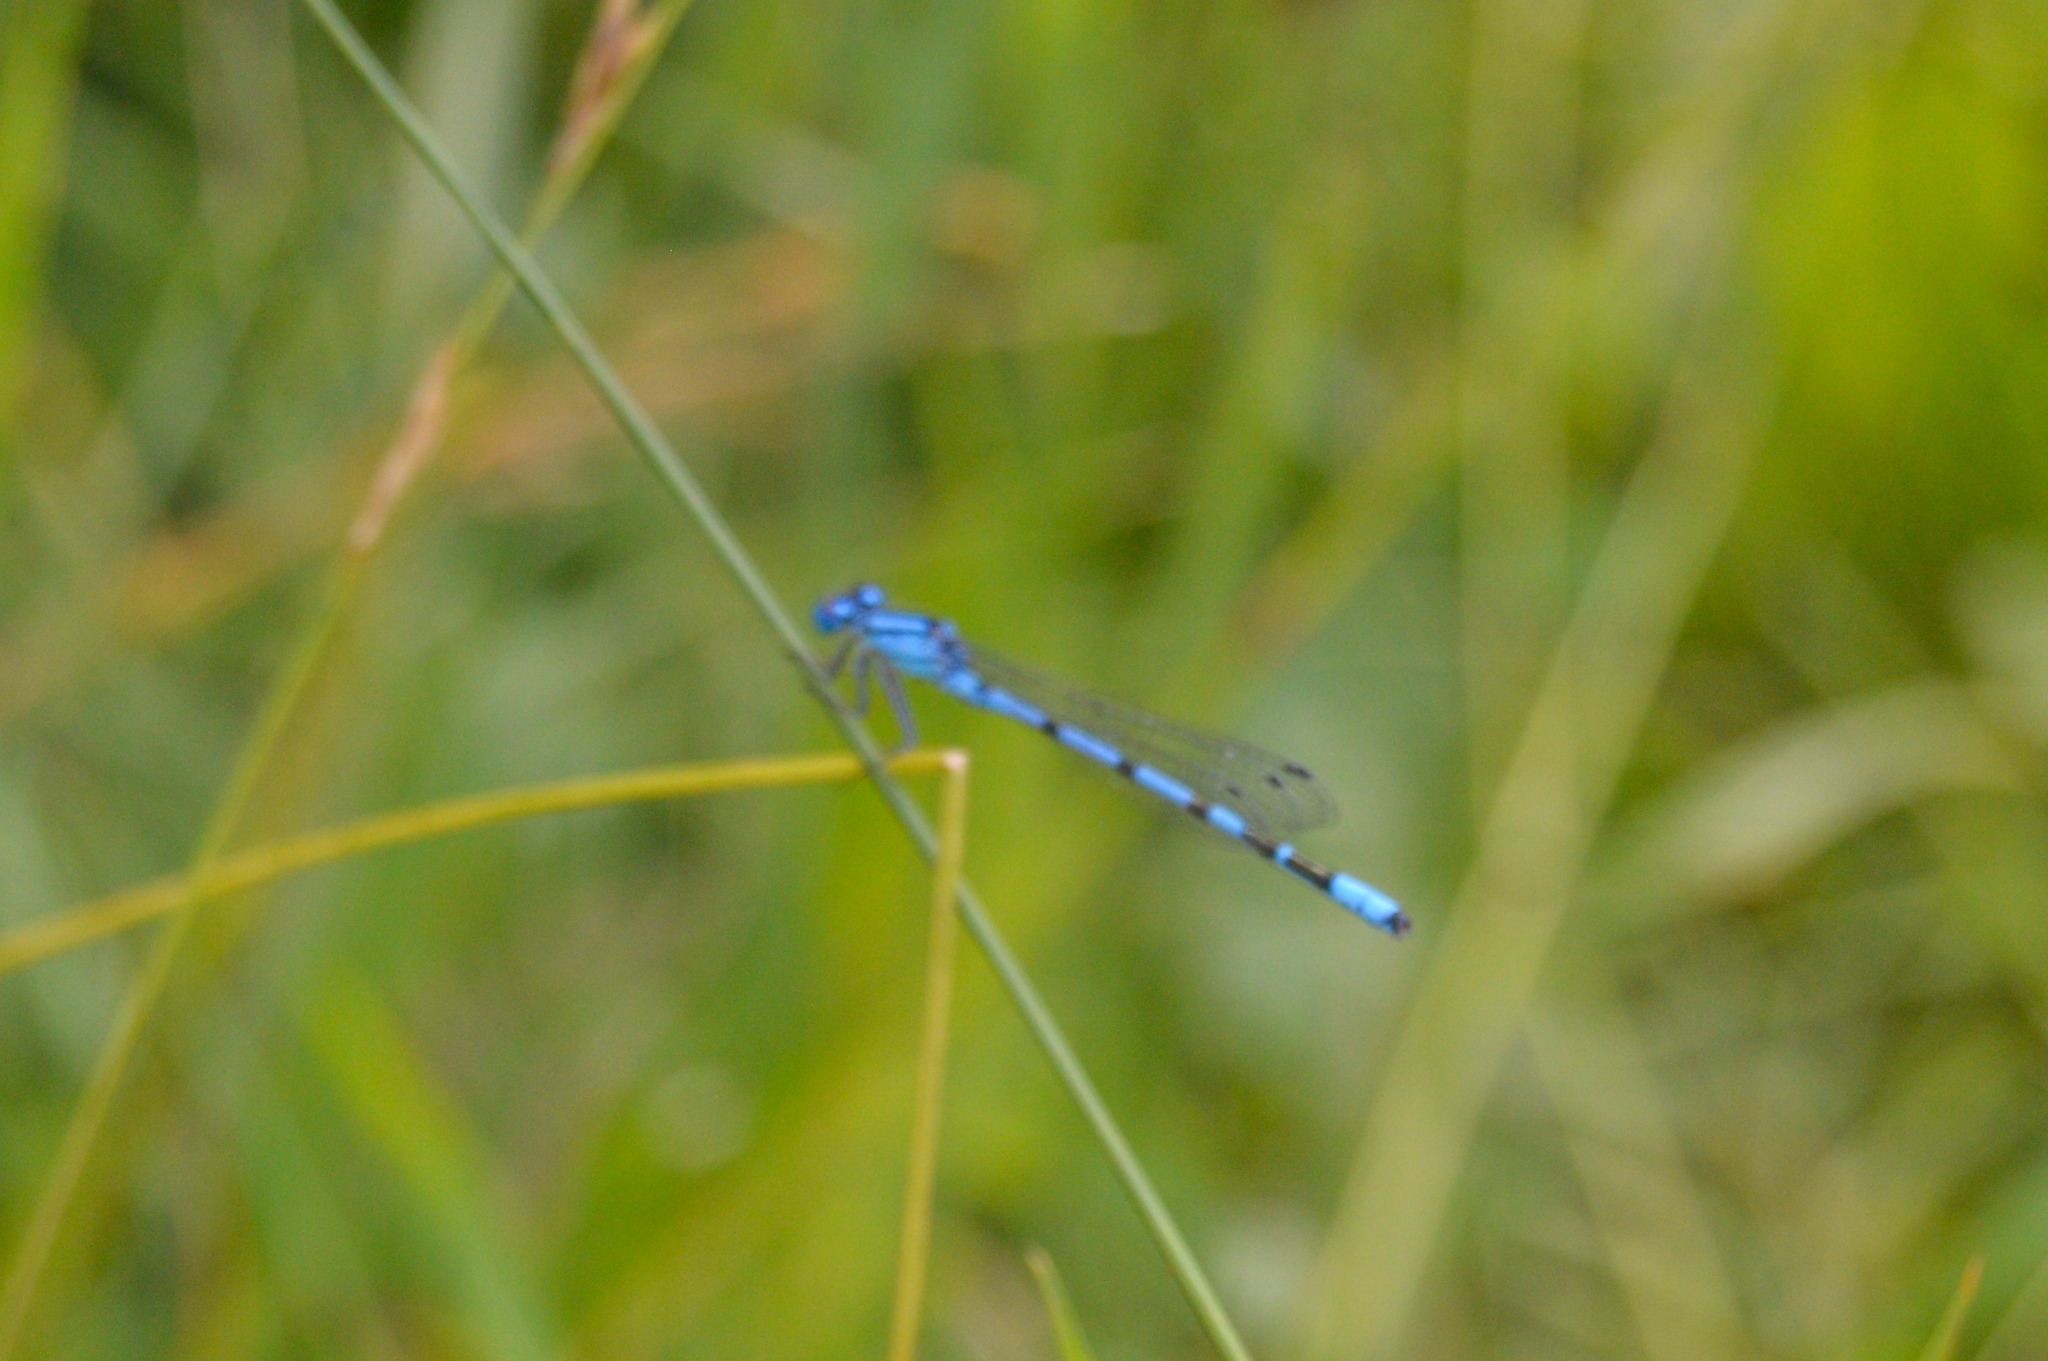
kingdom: Animalia
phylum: Arthropoda
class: Insecta
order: Odonata
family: Coenagrionidae
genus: Enallagma
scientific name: Enallagma cyathigerum
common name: Common blue damselfly
